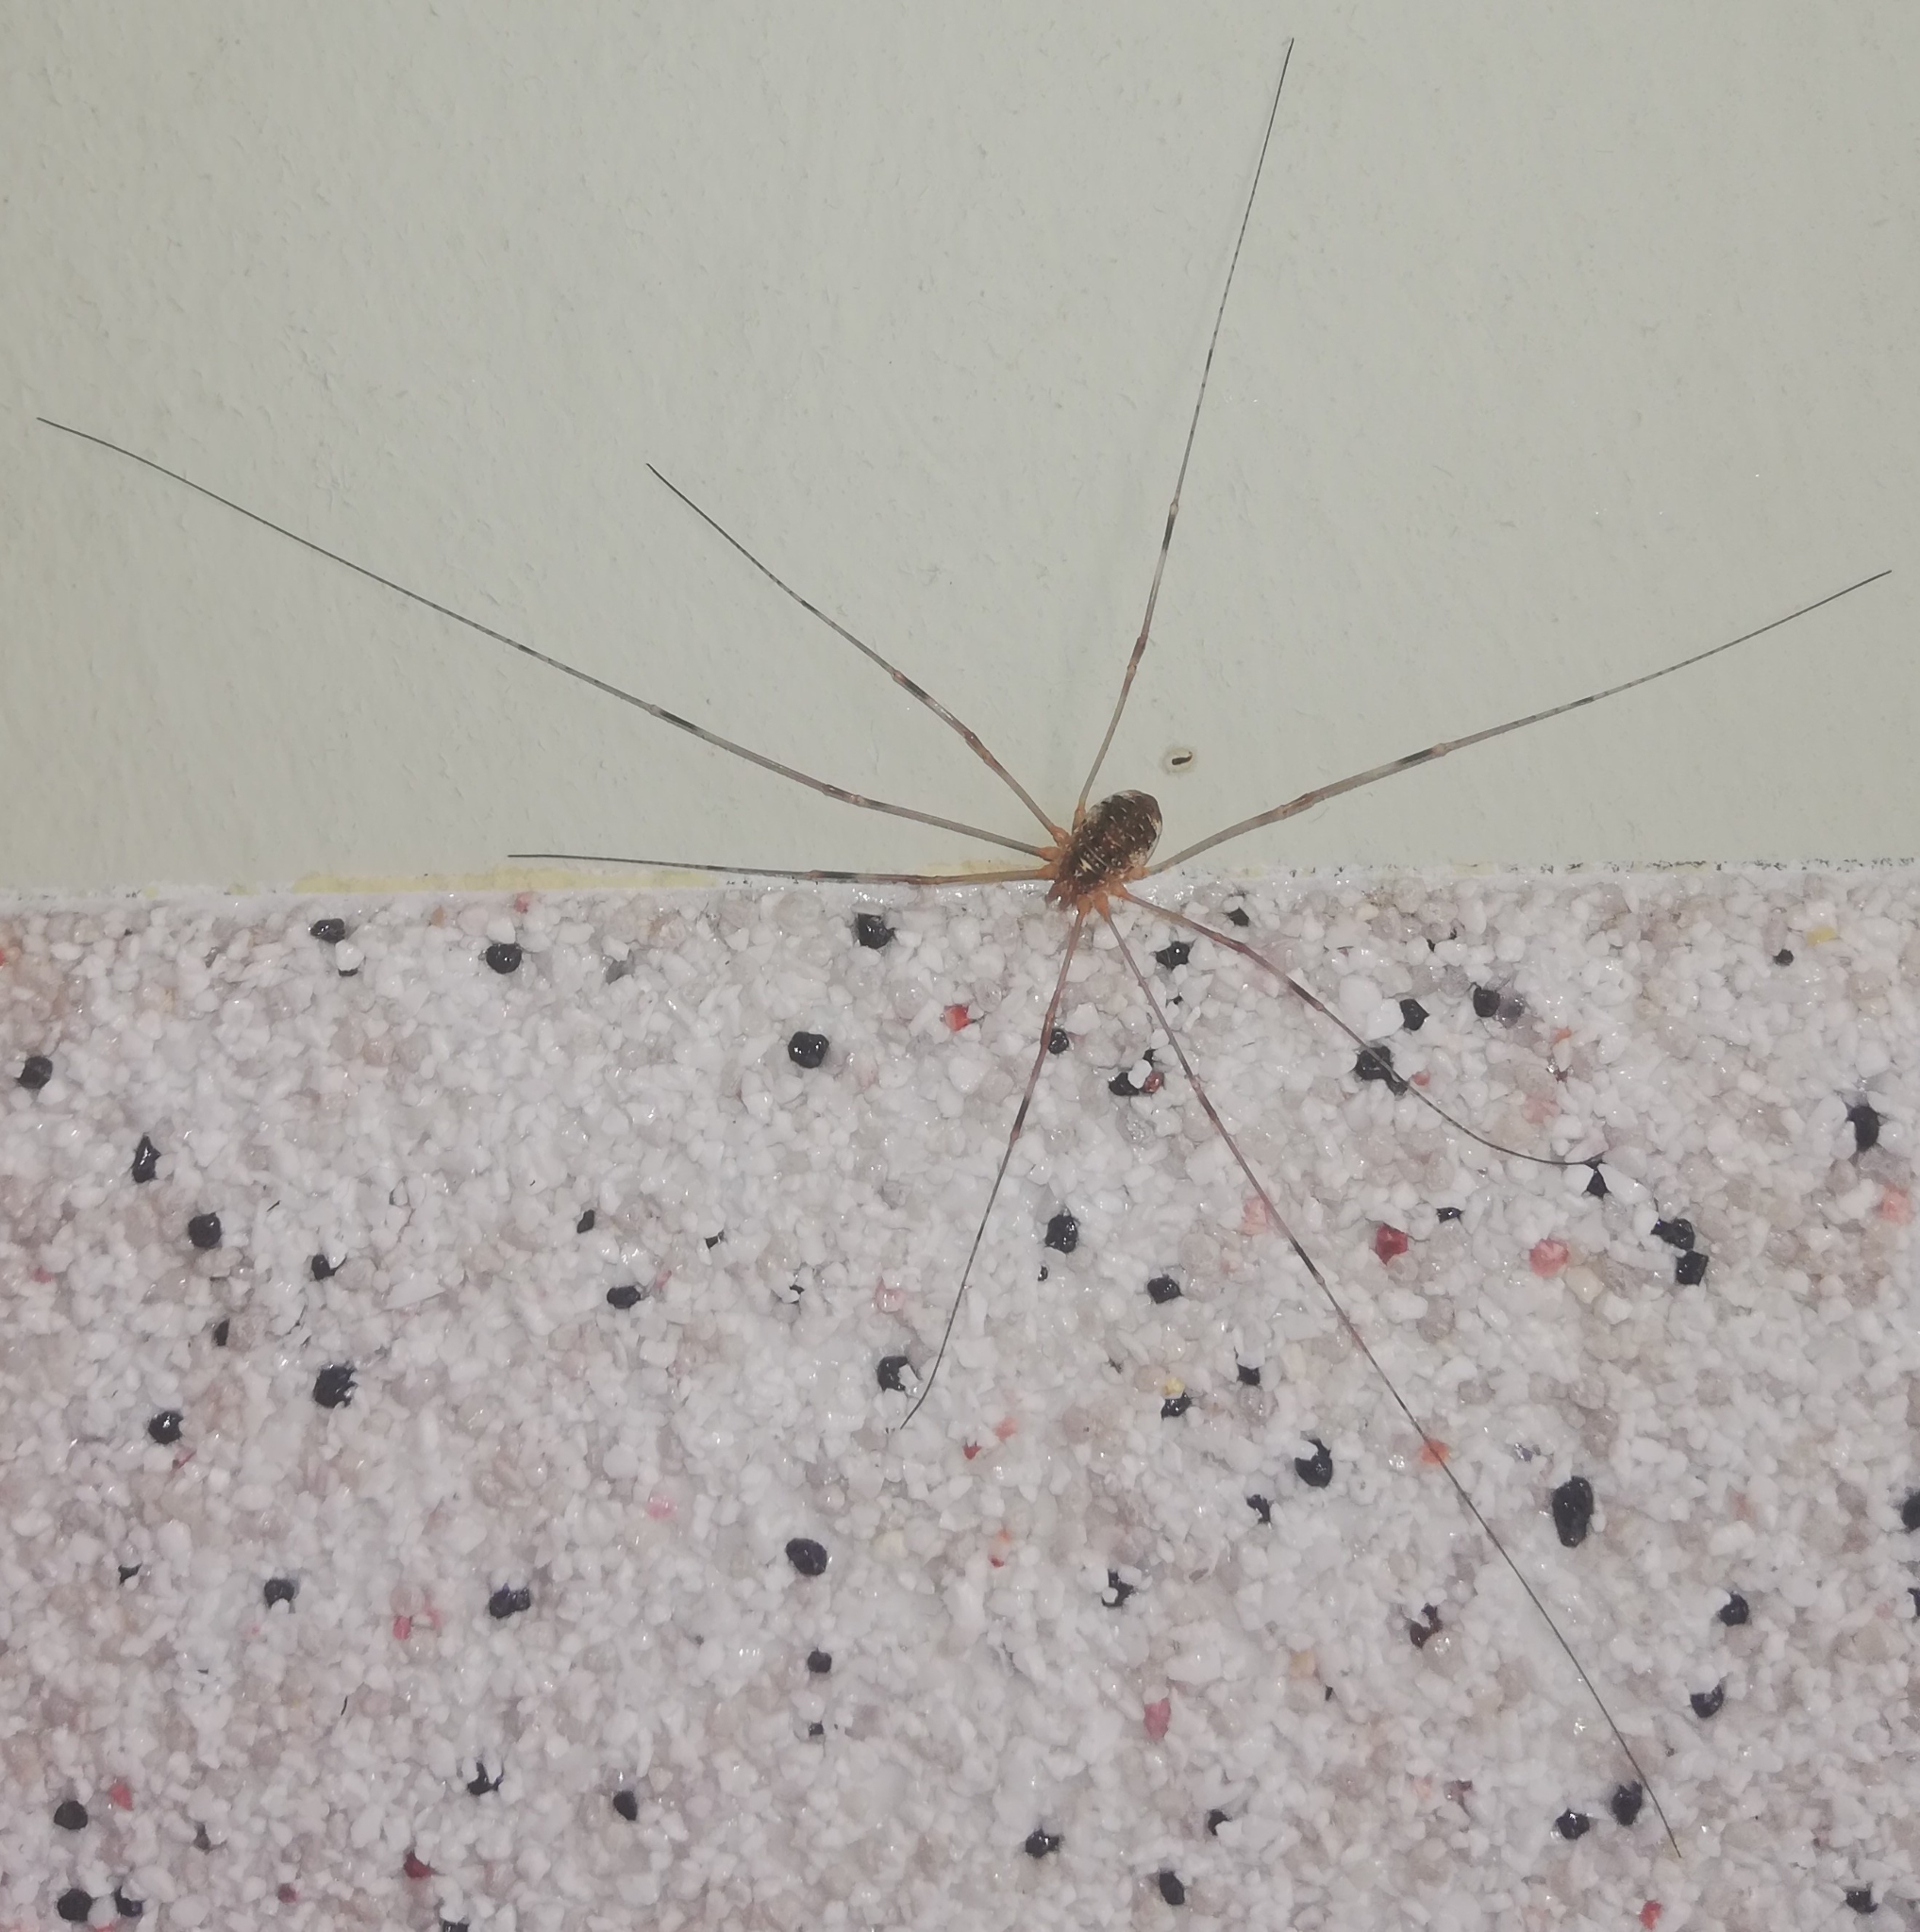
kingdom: Animalia
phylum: Arthropoda
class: Arachnida
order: Opiliones
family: Phalangiidae
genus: Opilio
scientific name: Opilio canestrinii
